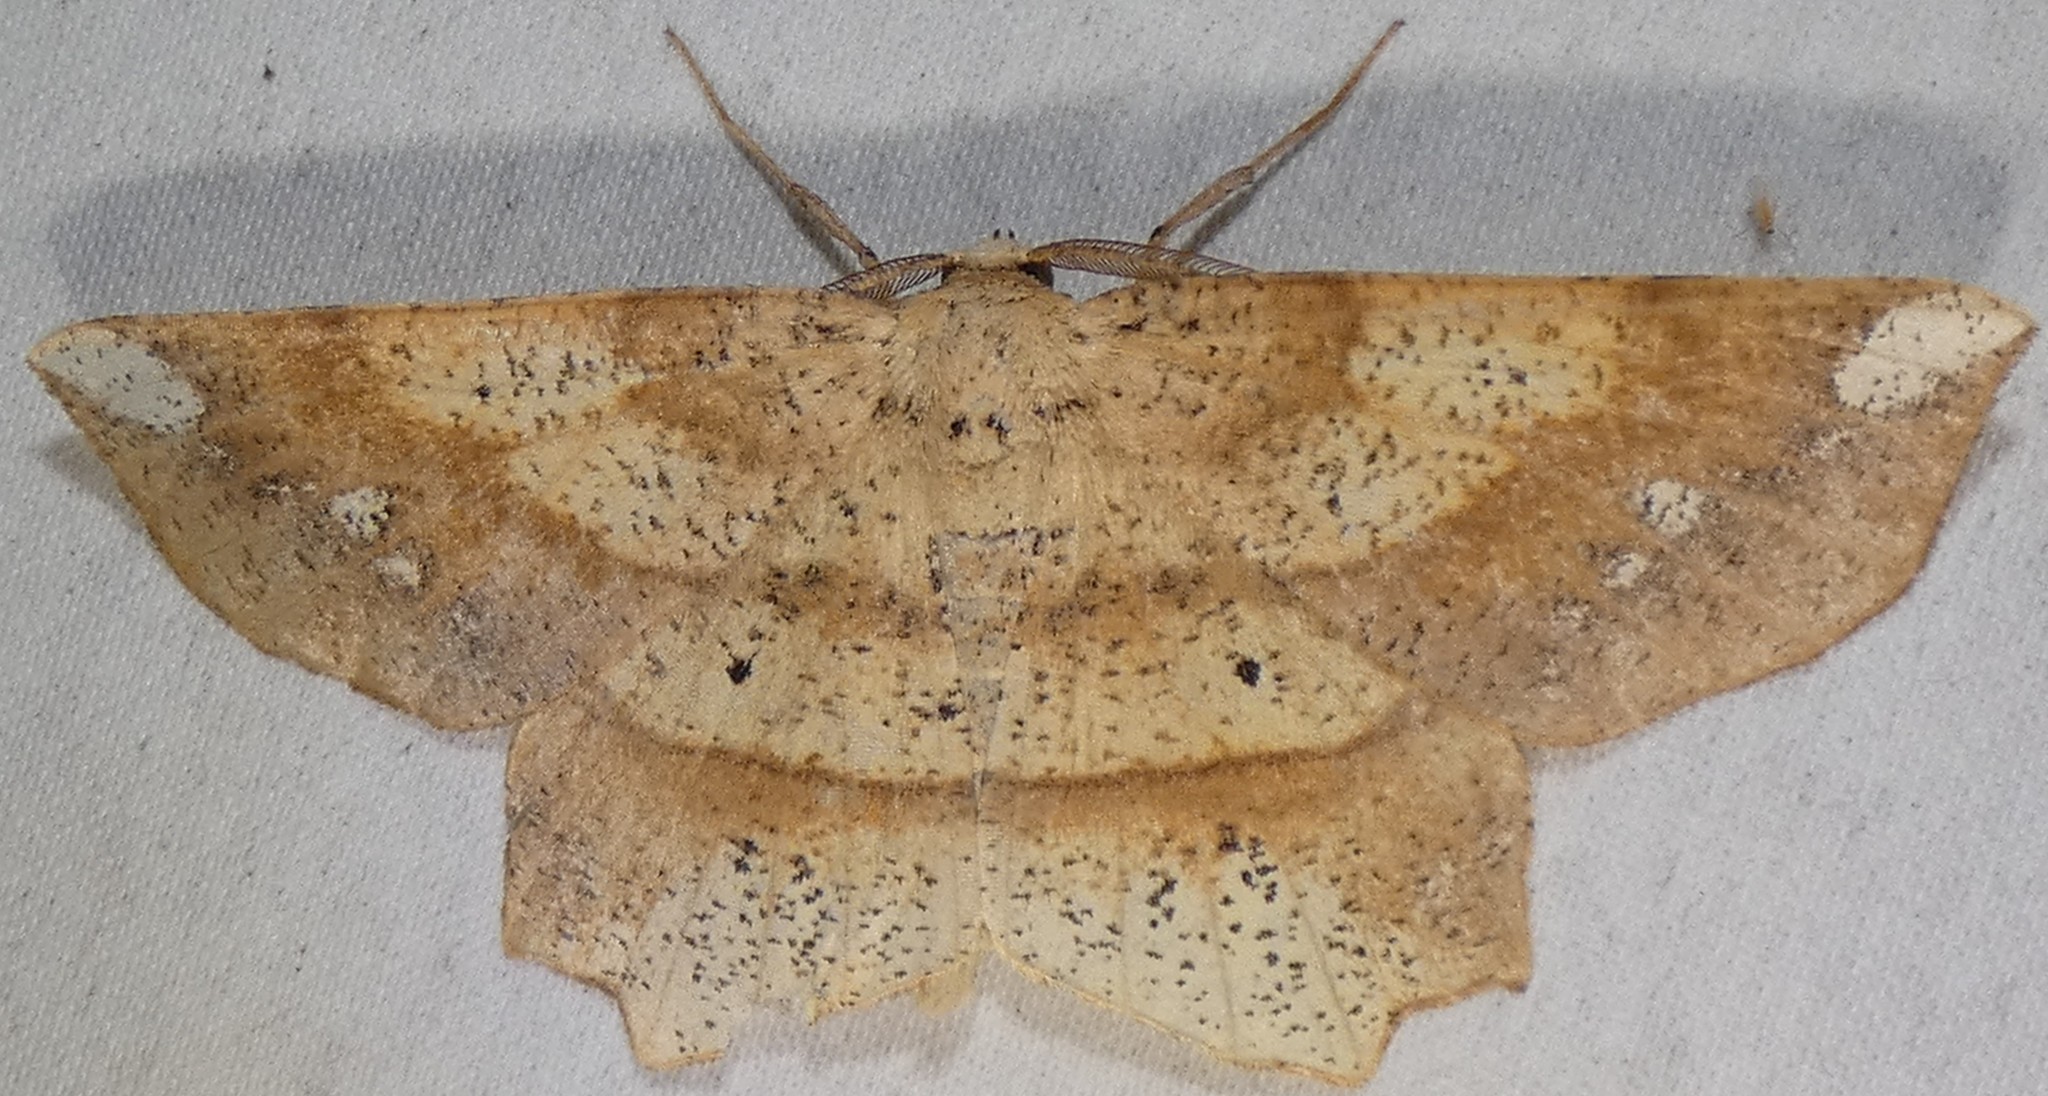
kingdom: Animalia
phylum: Arthropoda
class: Insecta
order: Lepidoptera
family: Geometridae
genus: Euchlaena
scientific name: Euchlaena amoenaria
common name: Deep yellow euchlaena
